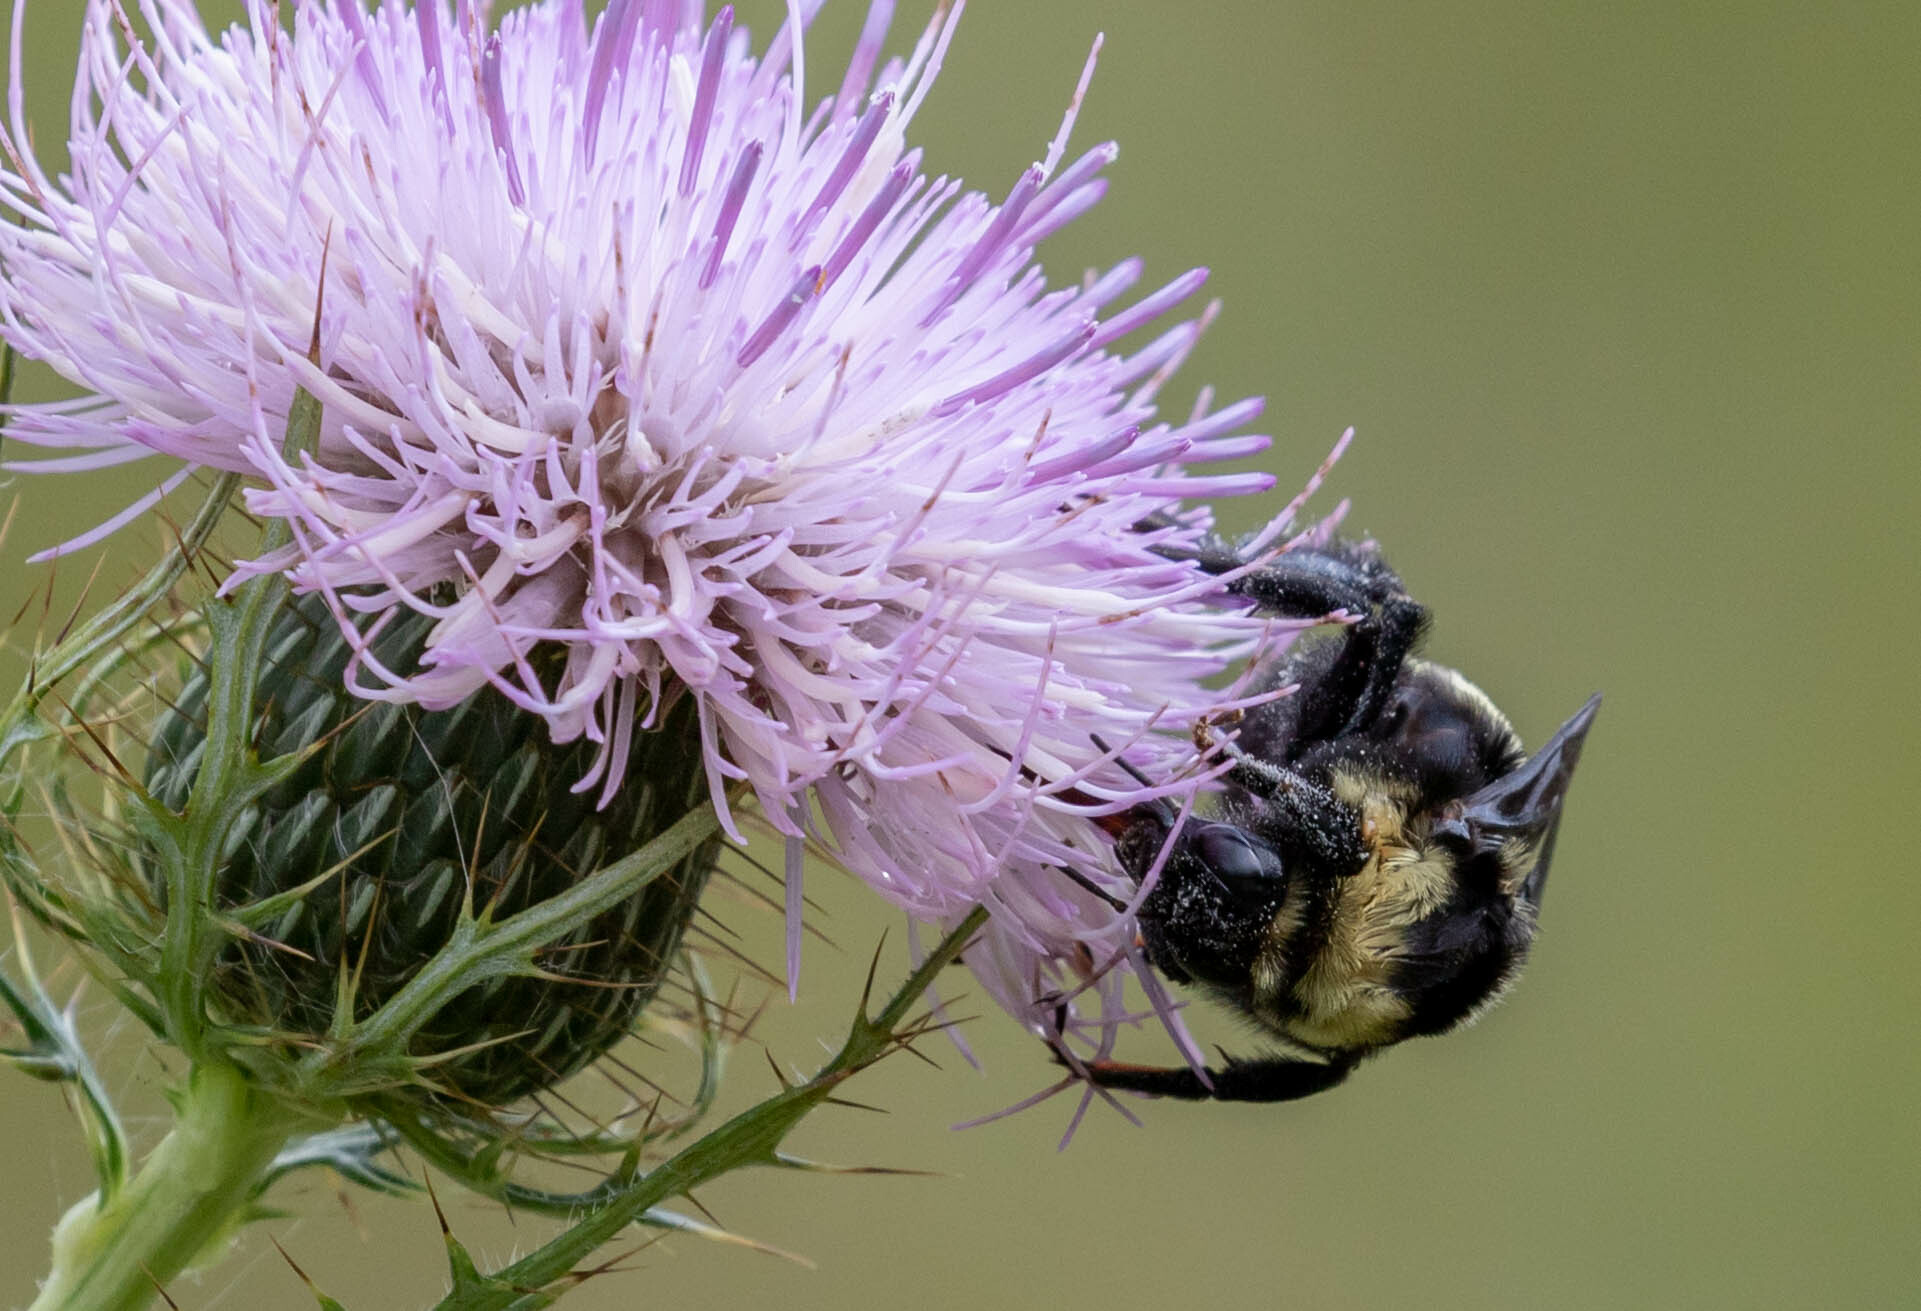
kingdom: Animalia
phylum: Arthropoda
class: Insecta
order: Hymenoptera
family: Apidae
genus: Bombus
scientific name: Bombus auricomus
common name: Black and gold bumble bee
